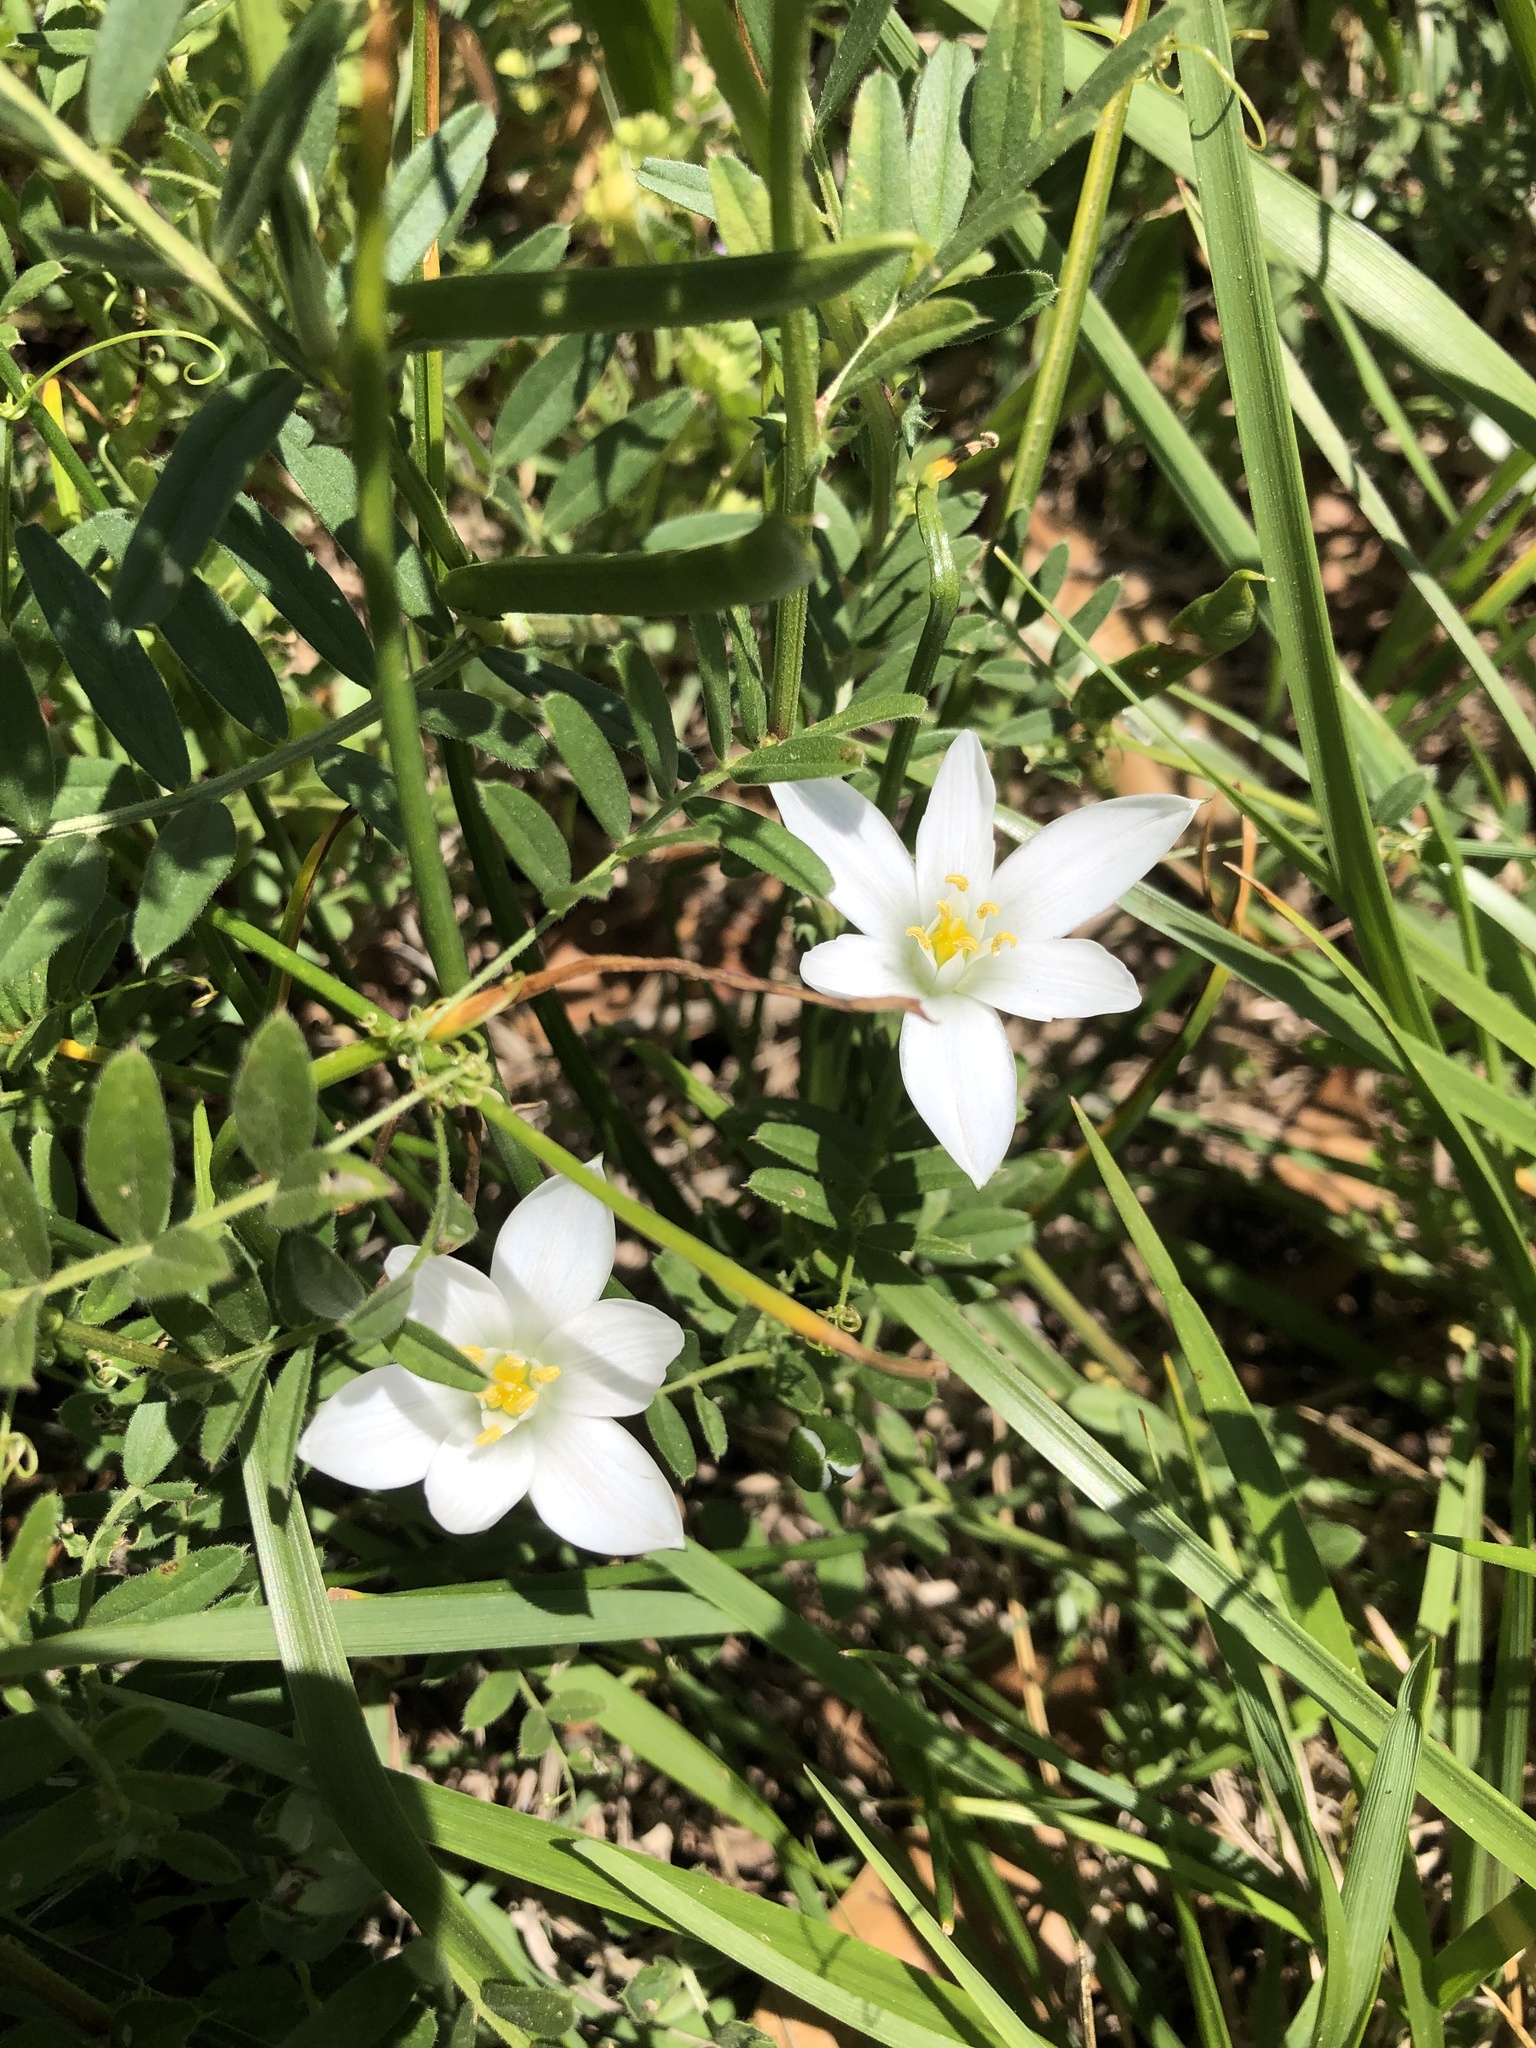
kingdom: Plantae
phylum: Tracheophyta
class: Liliopsida
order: Asparagales
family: Asparagaceae
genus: Ornithogalum
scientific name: Ornithogalum umbellatum
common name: Garden star-of-bethlehem
